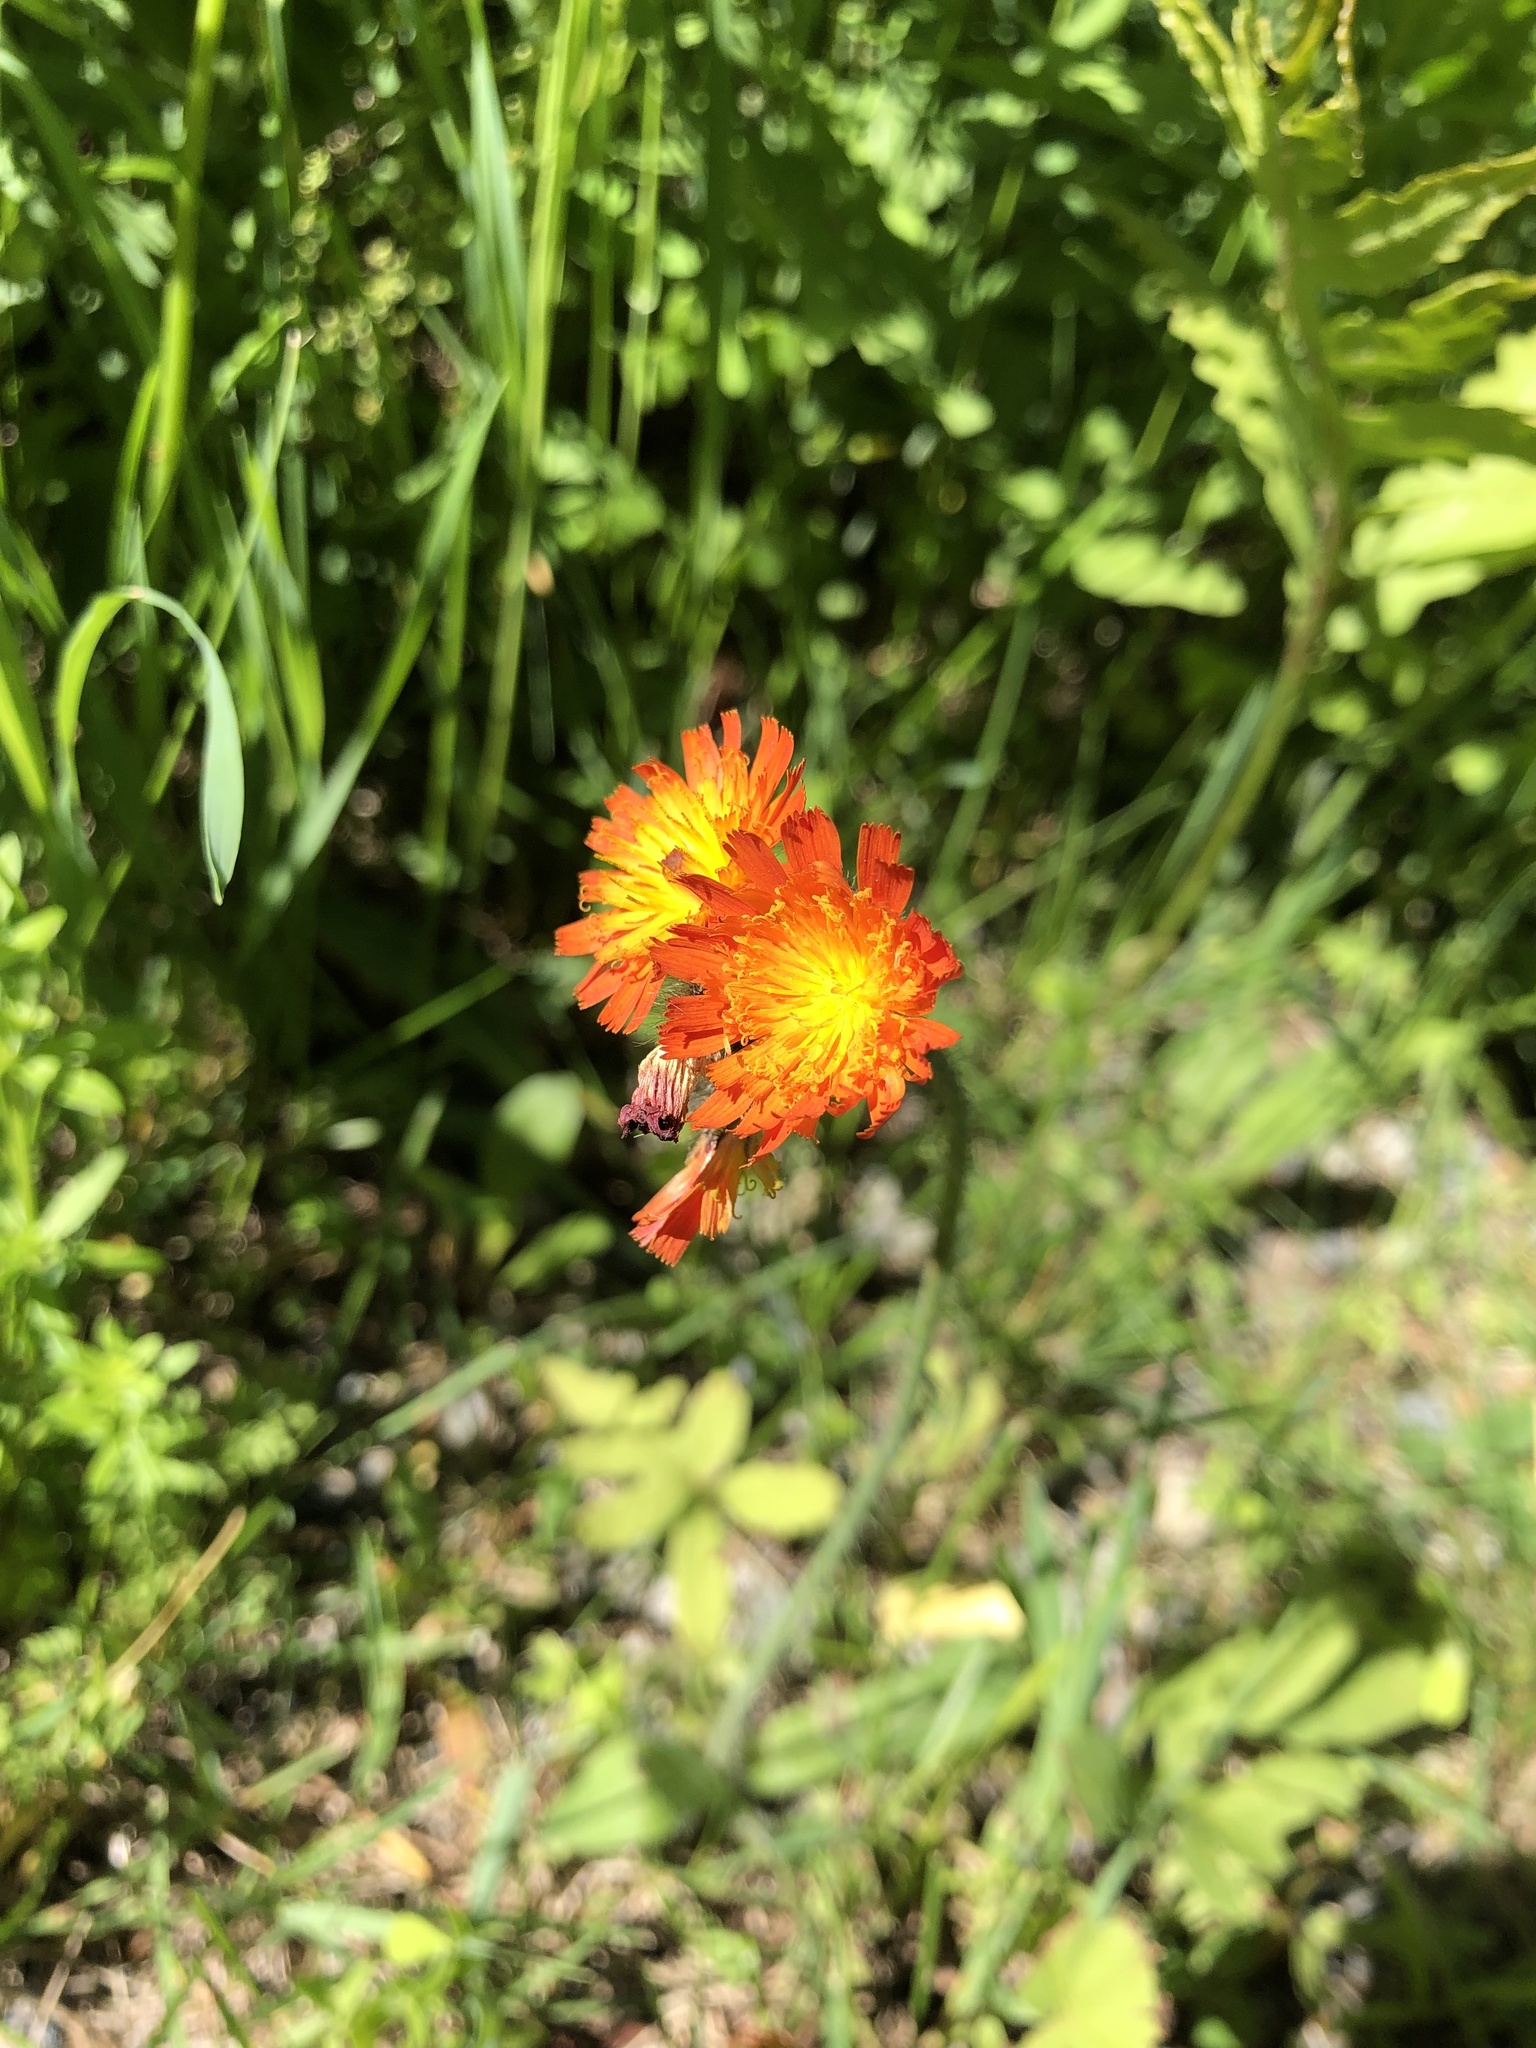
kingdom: Plantae
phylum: Tracheophyta
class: Magnoliopsida
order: Asterales
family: Asteraceae
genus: Pilosella
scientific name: Pilosella aurantiaca
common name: Fox-and-cubs
